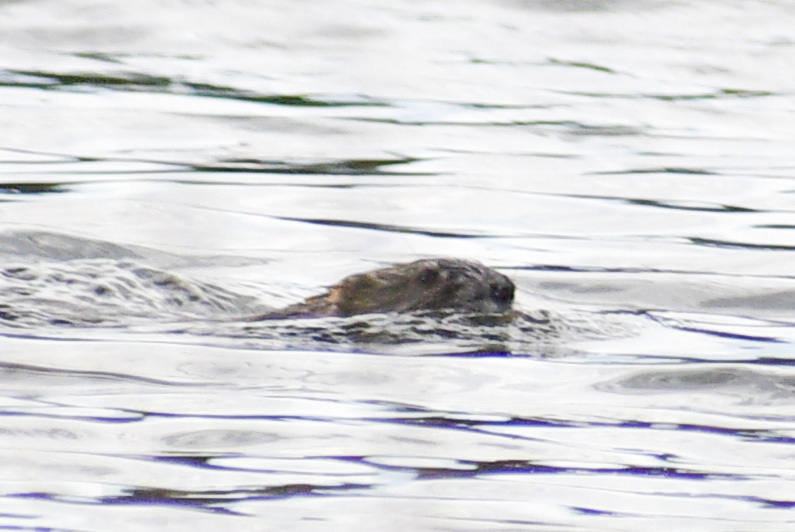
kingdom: Animalia
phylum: Chordata
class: Mammalia
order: Rodentia
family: Cricetidae
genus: Ondatra
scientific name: Ondatra zibethicus
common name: Muskrat
